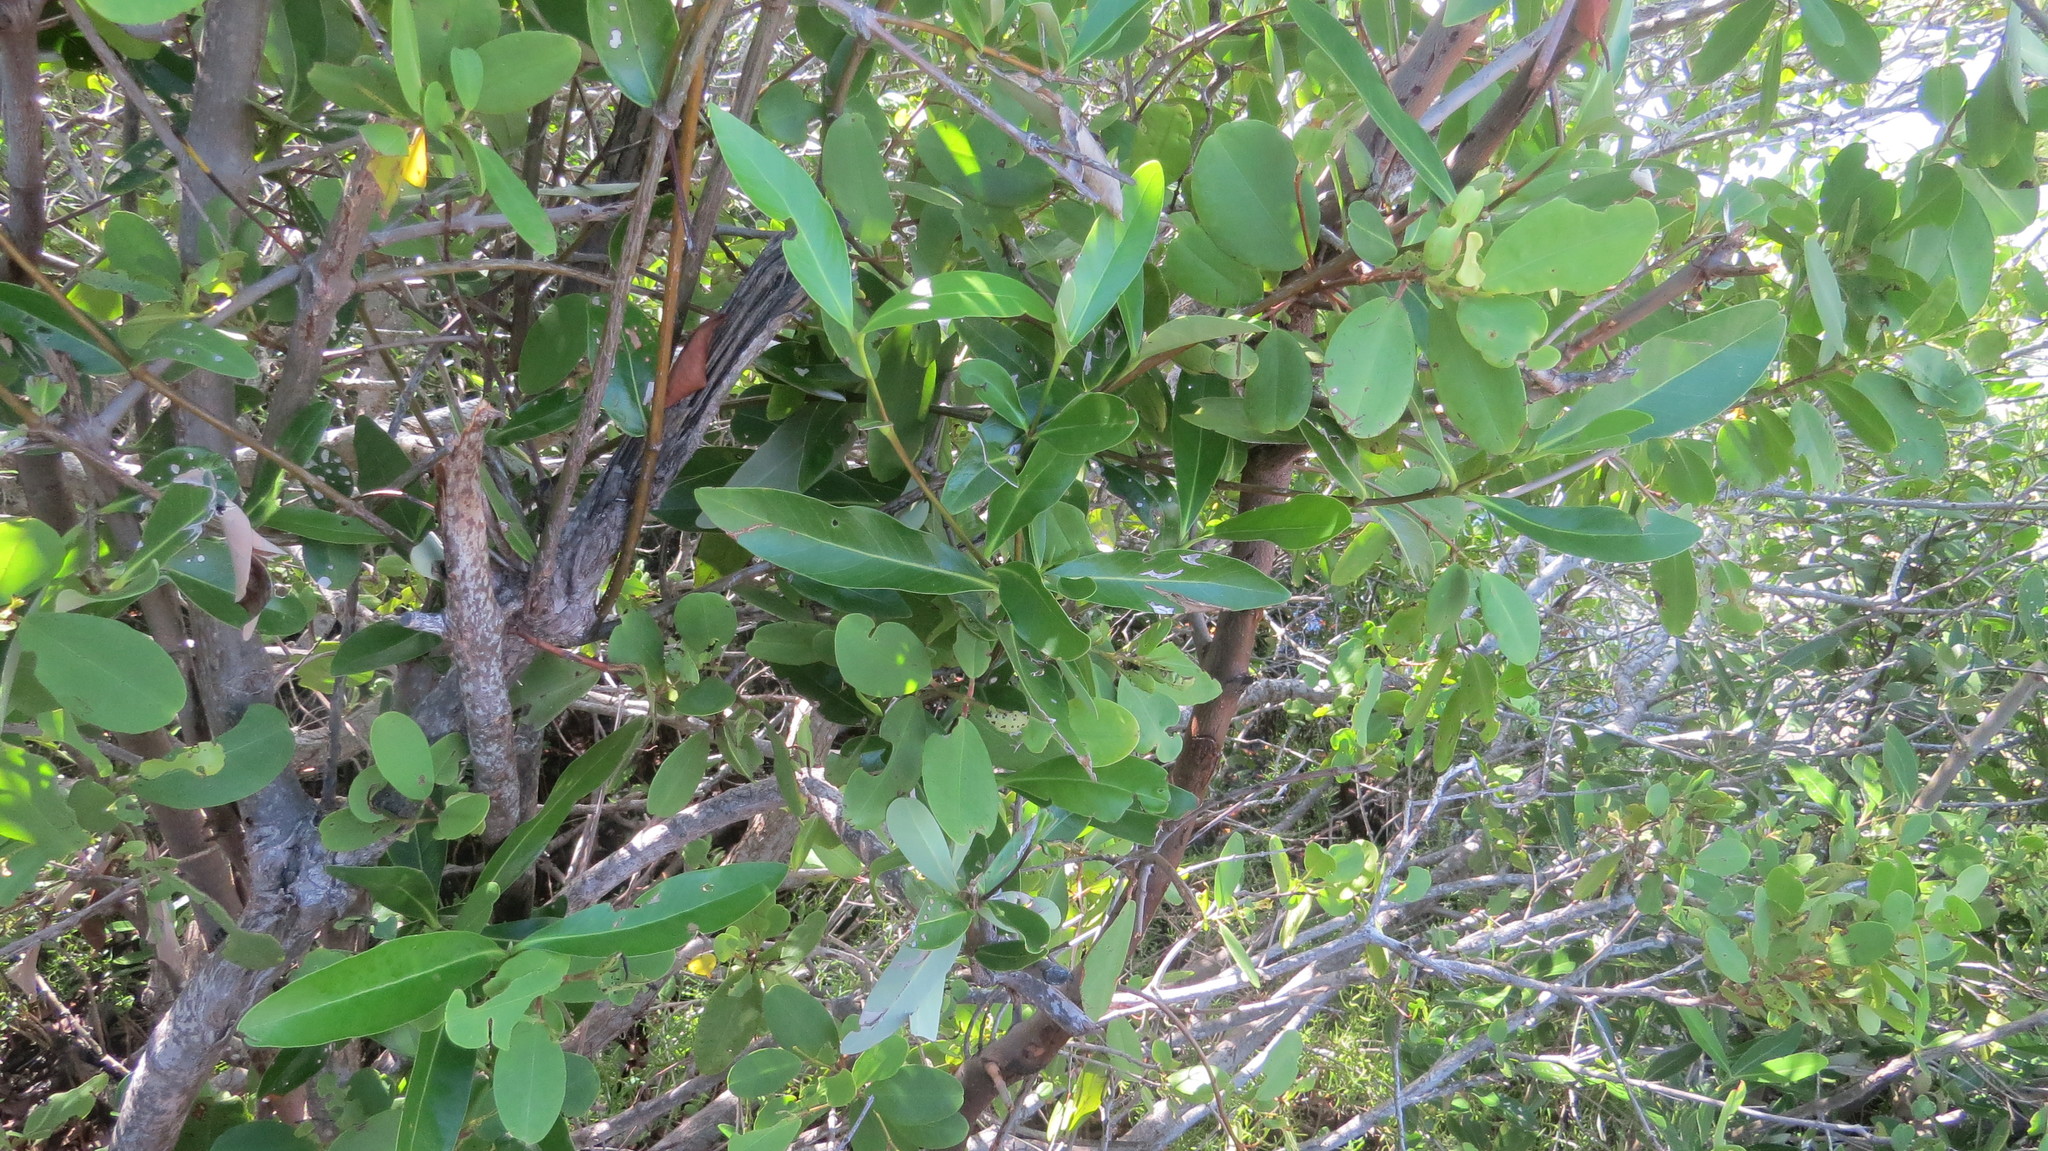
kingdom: Plantae
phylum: Tracheophyta
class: Magnoliopsida
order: Myrtales
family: Combretaceae
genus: Laguncularia
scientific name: Laguncularia racemosa
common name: White mangrove
